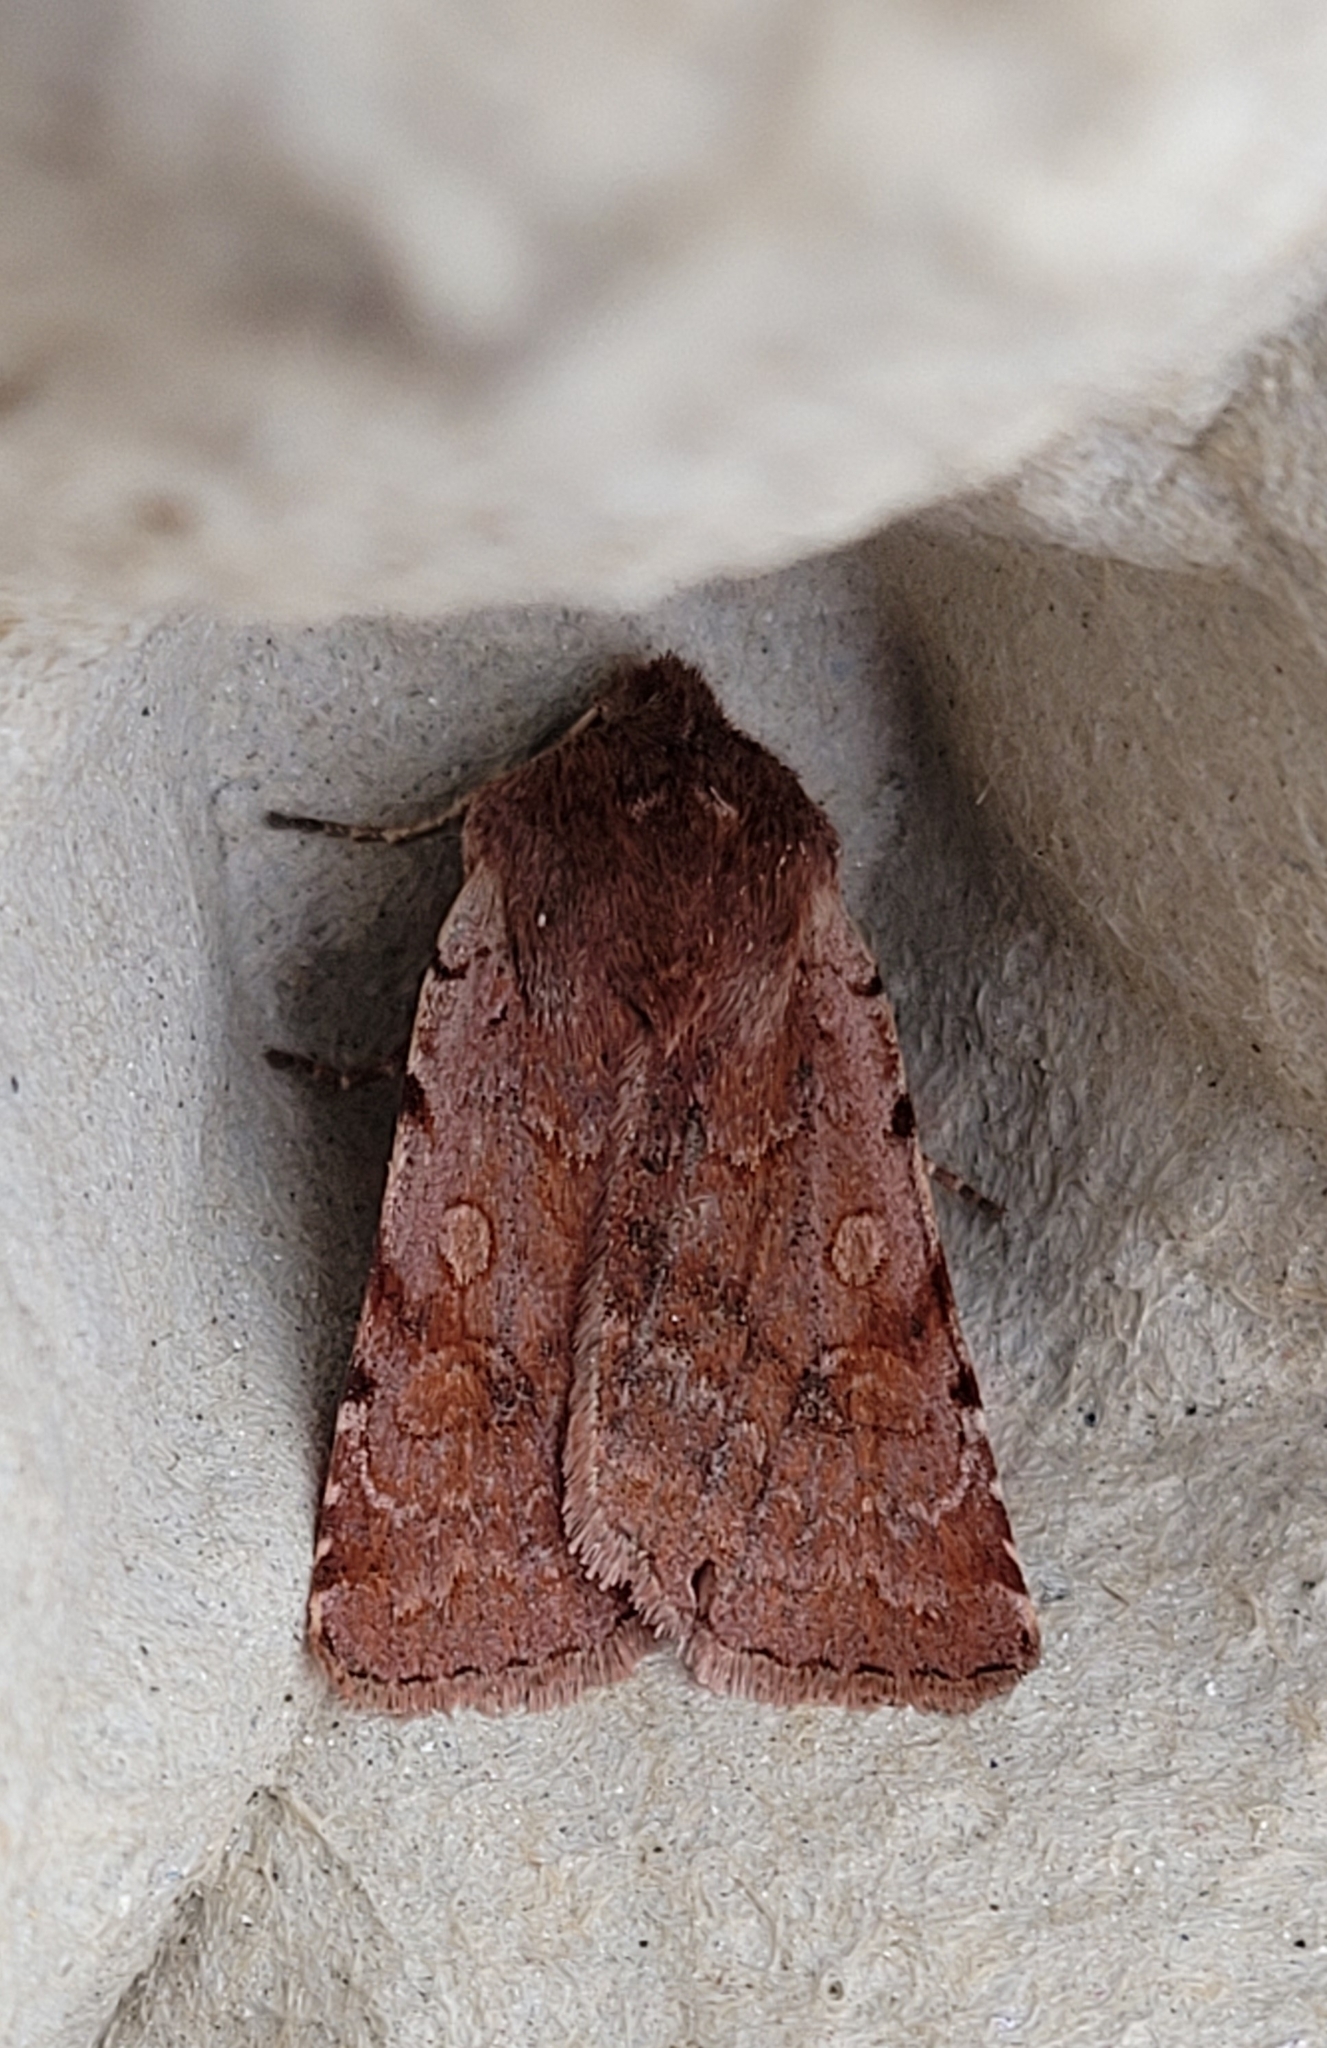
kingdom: Animalia
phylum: Arthropoda
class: Insecta
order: Lepidoptera
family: Noctuidae
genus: Cerastis
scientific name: Cerastis rubricosa
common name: Red chestnut
